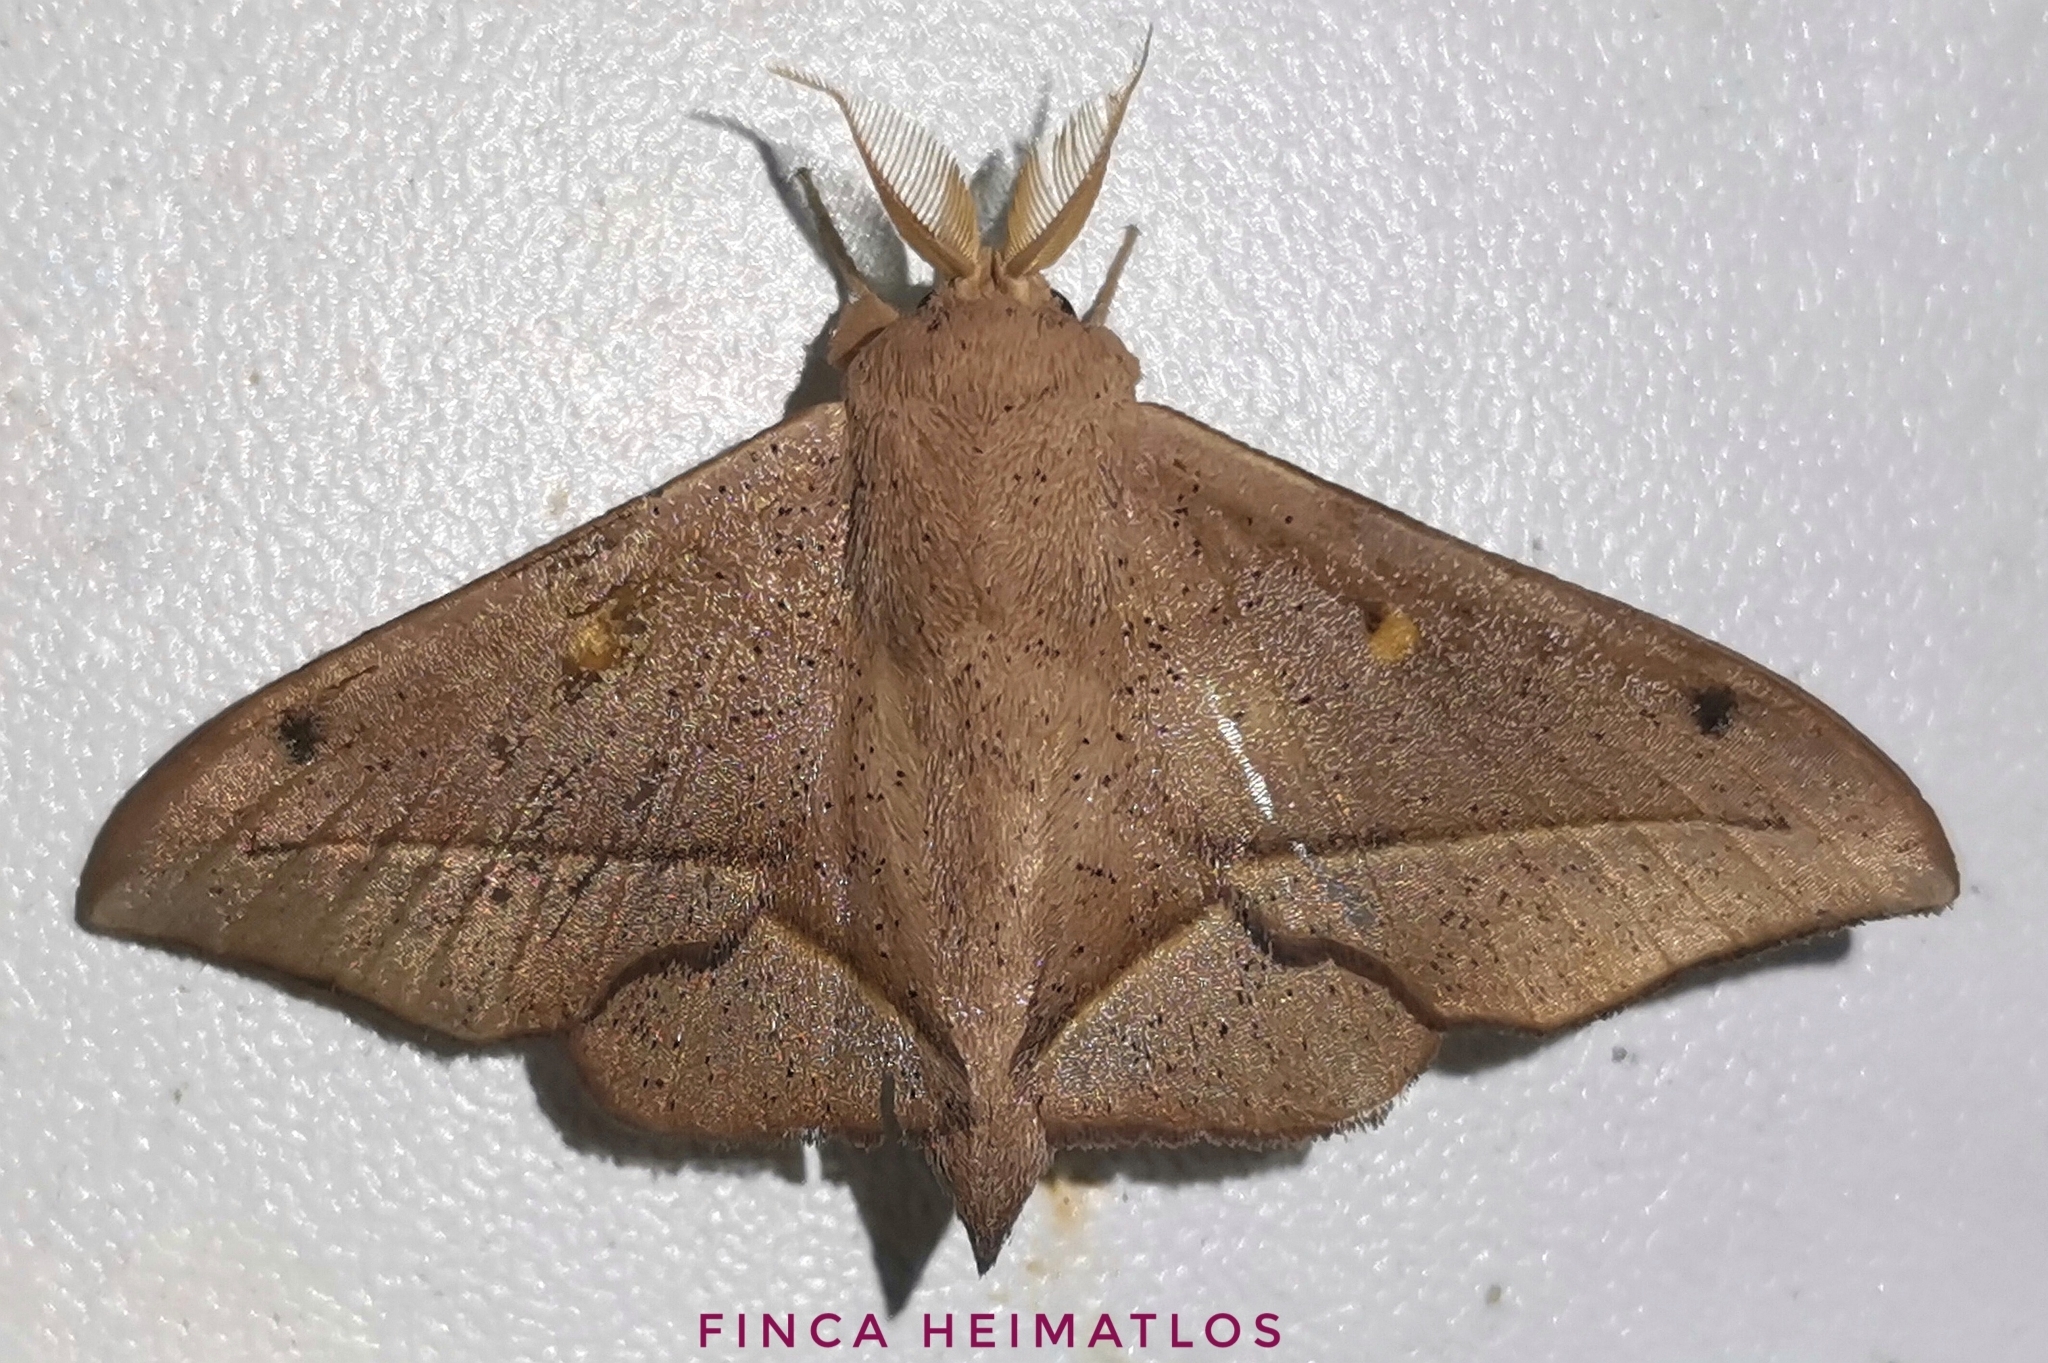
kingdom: Animalia
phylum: Arthropoda
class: Insecta
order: Lepidoptera
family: Mimallonidae
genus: Druentica
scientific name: Druentica partha
